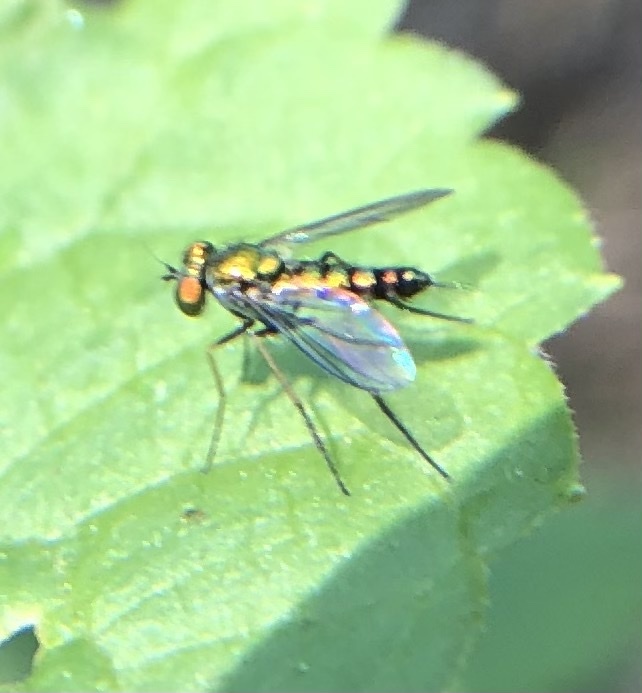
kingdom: Animalia
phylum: Arthropoda
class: Insecta
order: Diptera
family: Dolichopodidae
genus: Condylostylus
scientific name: Condylostylus caudatus
